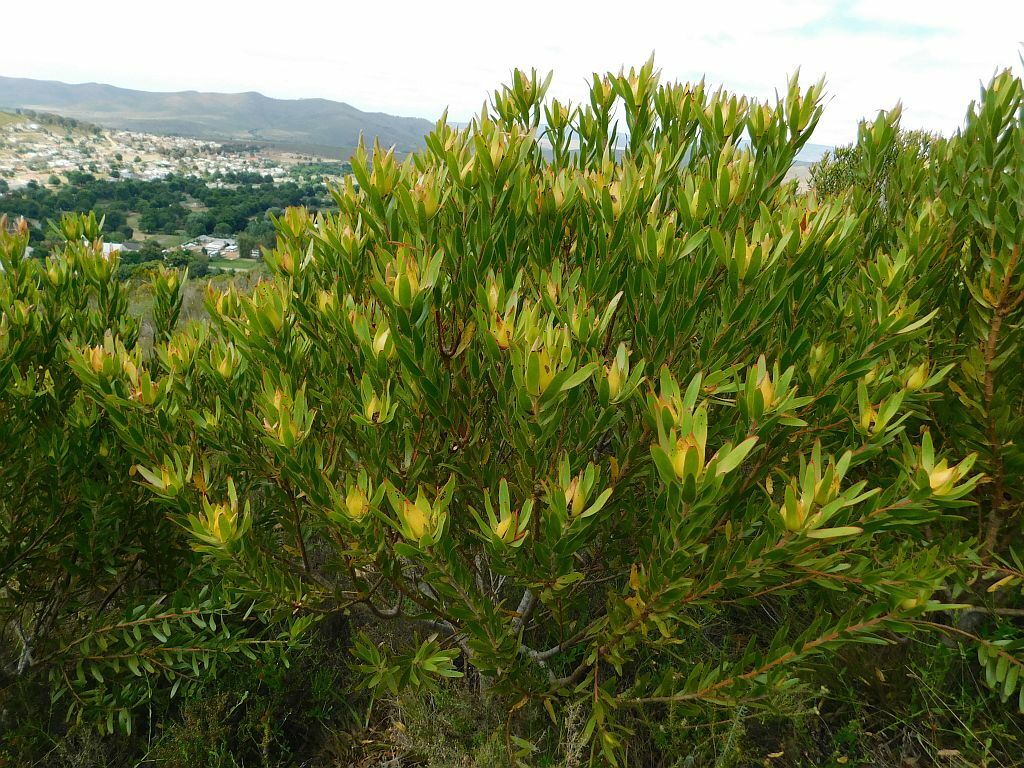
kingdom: Plantae
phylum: Tracheophyta
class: Magnoliopsida
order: Proteales
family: Proteaceae
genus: Leucadendron
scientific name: Leucadendron laureolum
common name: Golden sunshinebush
